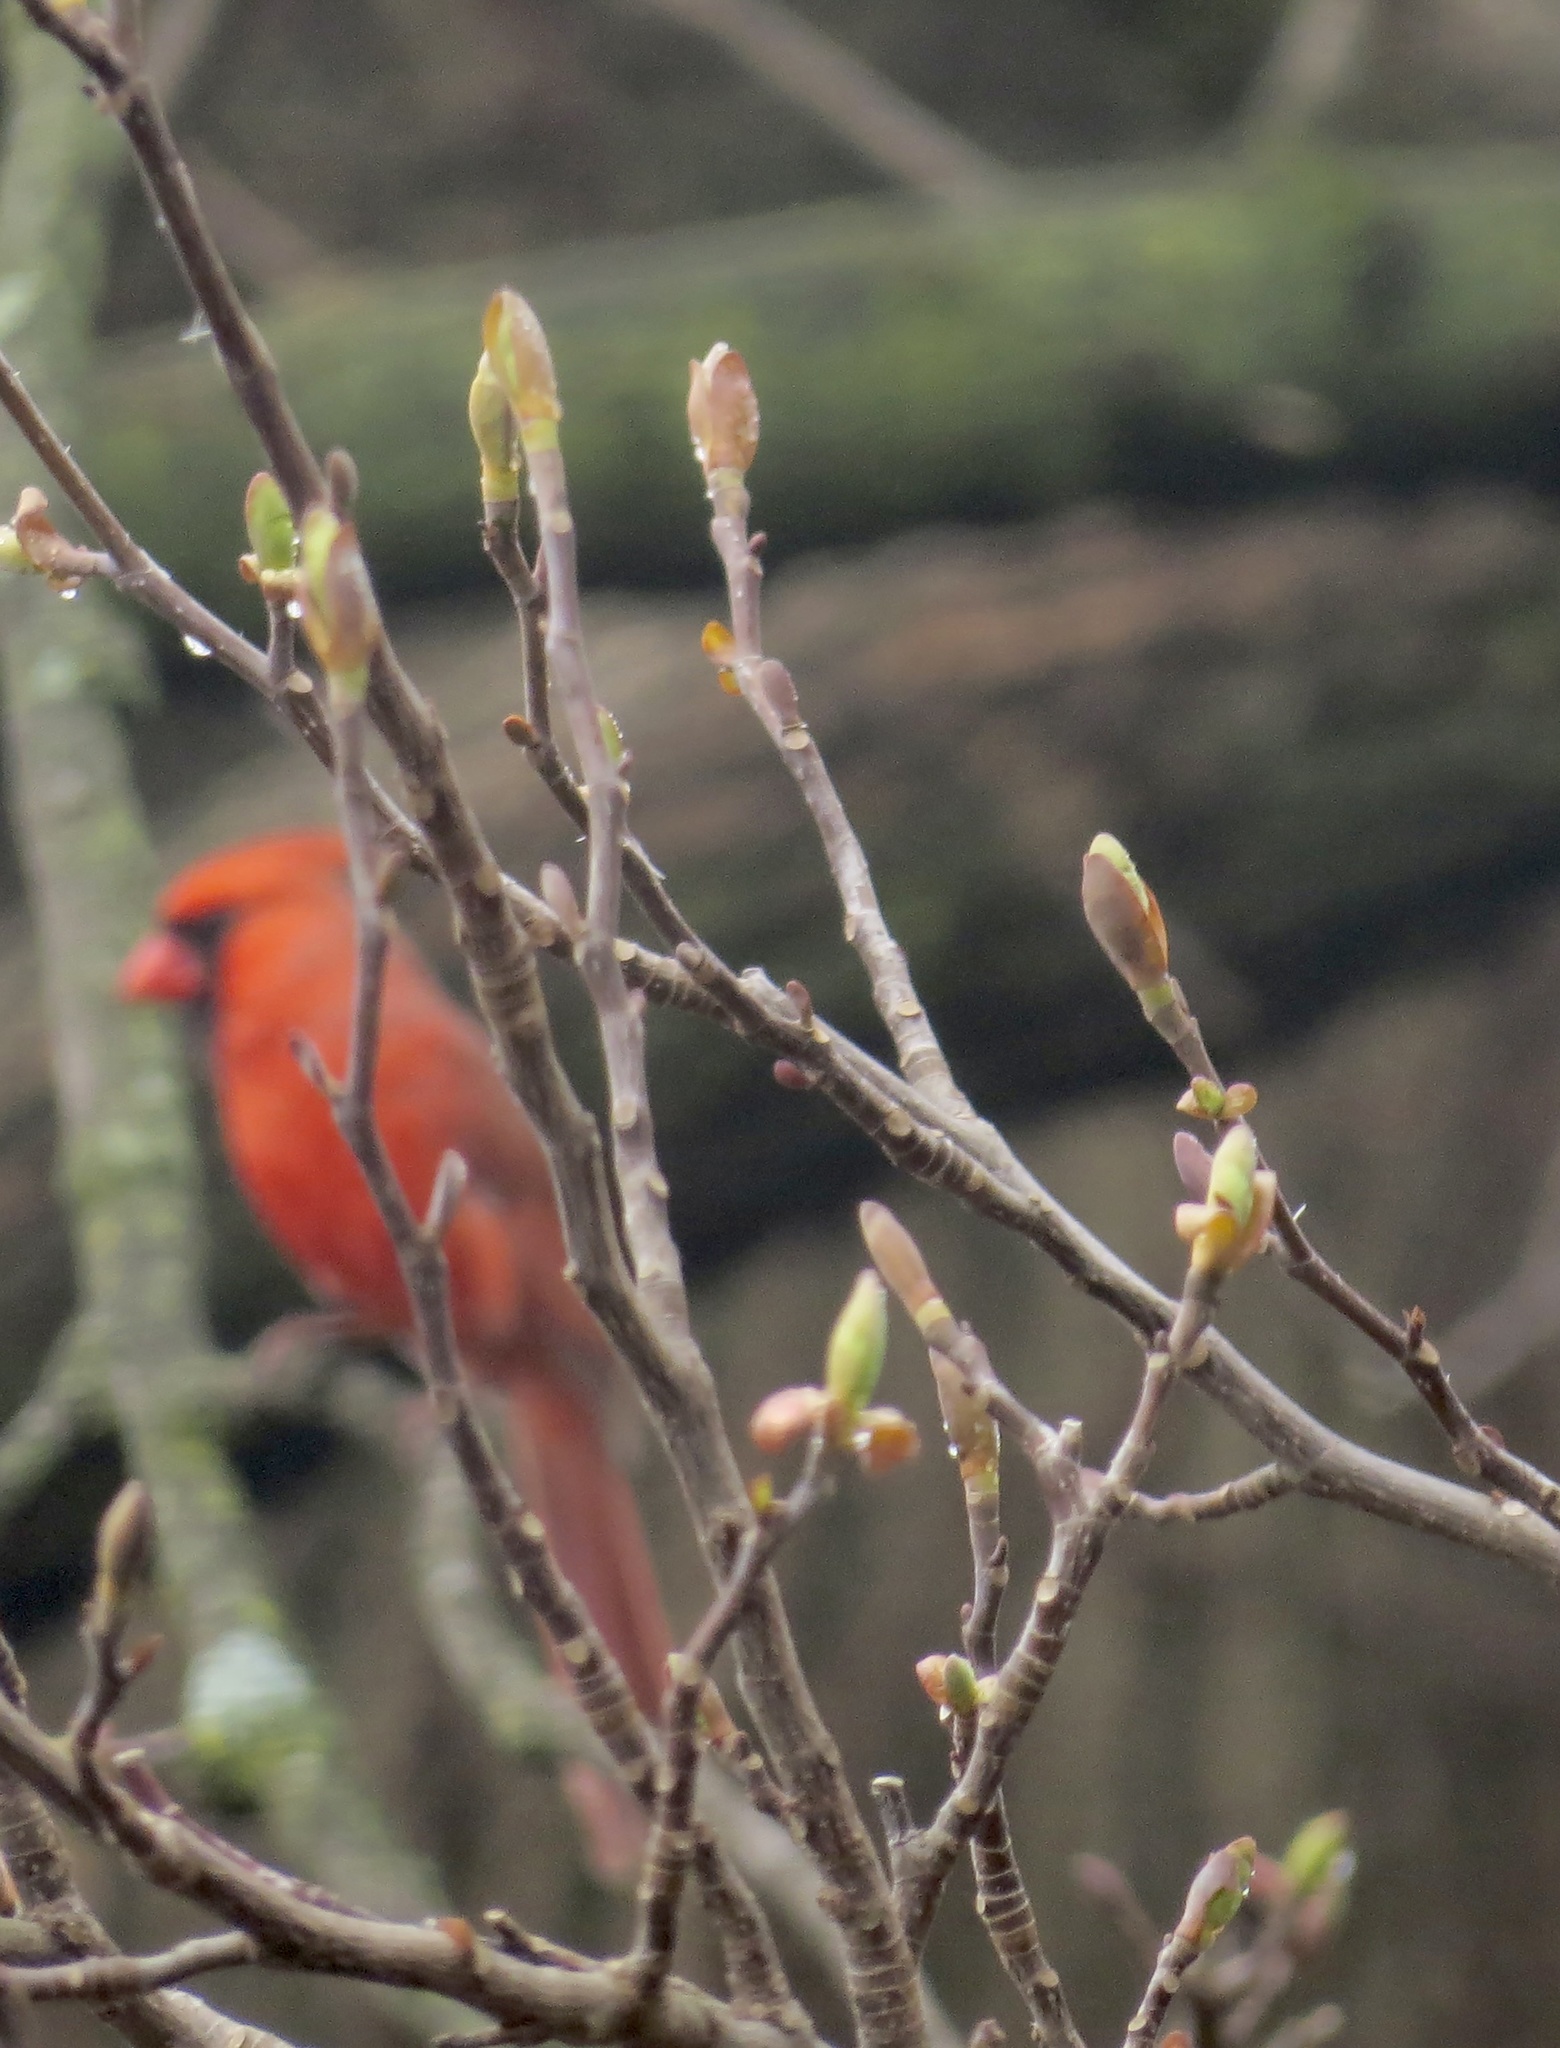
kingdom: Plantae
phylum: Tracheophyta
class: Magnoliopsida
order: Magnoliales
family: Magnoliaceae
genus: Liriodendron
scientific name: Liriodendron tulipifera
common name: Tulip tree
